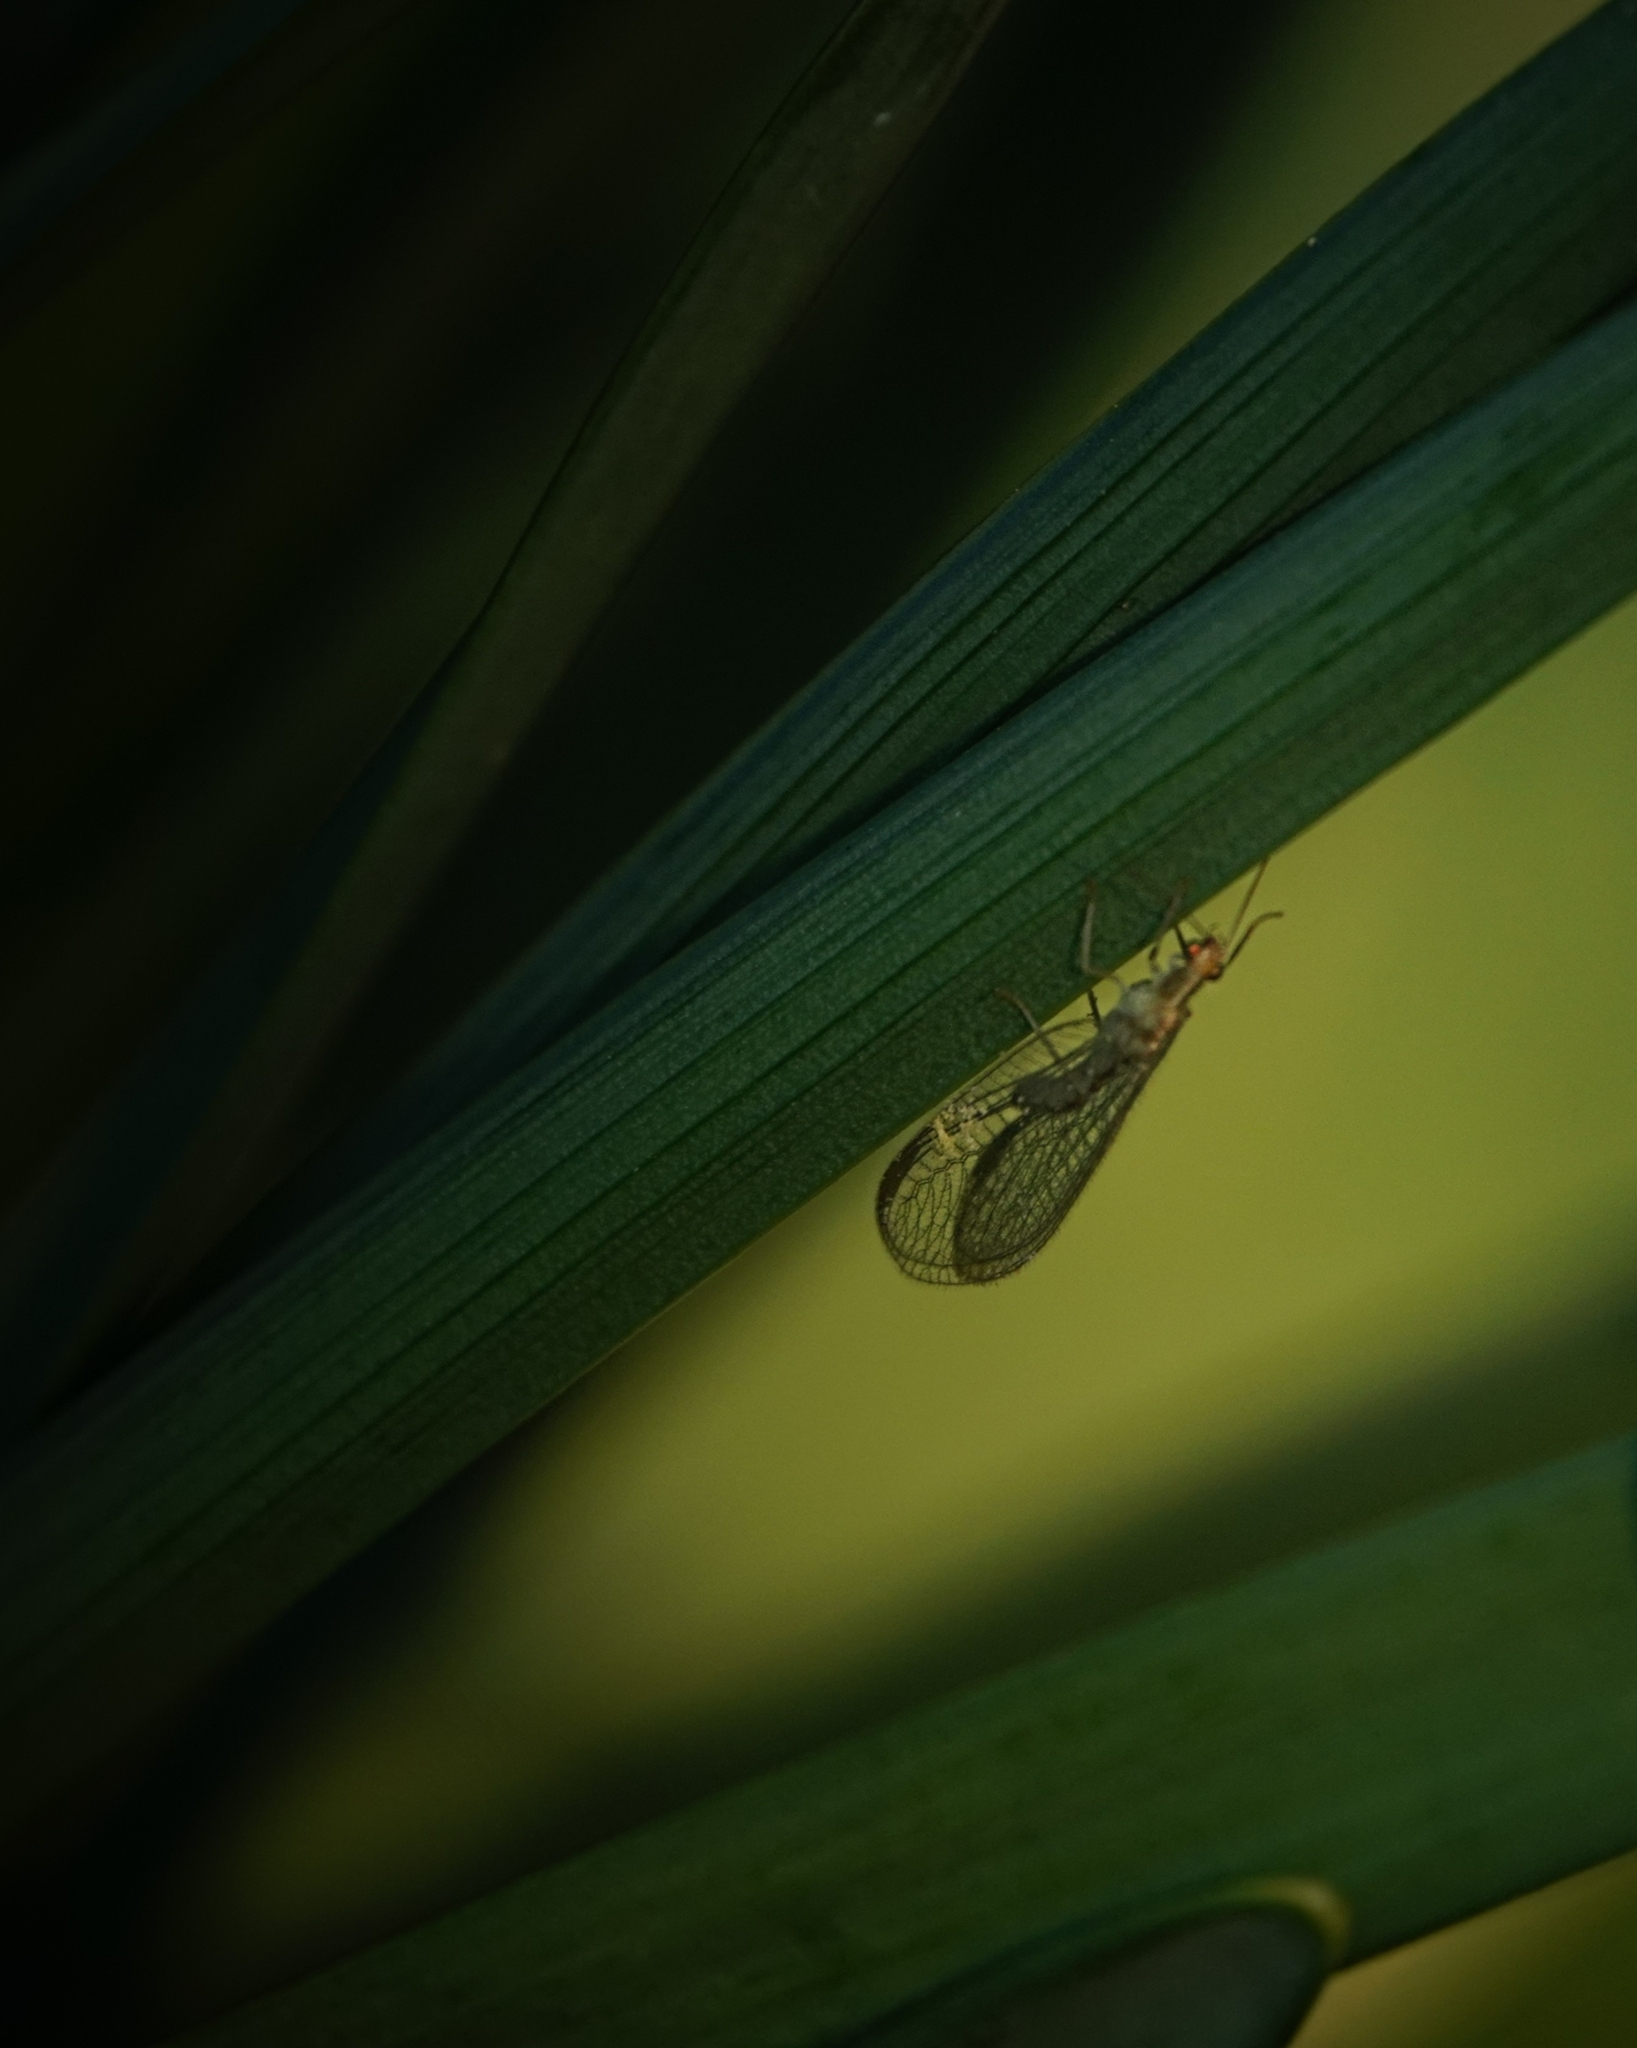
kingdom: Animalia
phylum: Arthropoda
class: Insecta
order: Neuroptera
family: Chrysopidae
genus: Chrysoperla
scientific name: Chrysoperla carnea
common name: Common green lacewing
